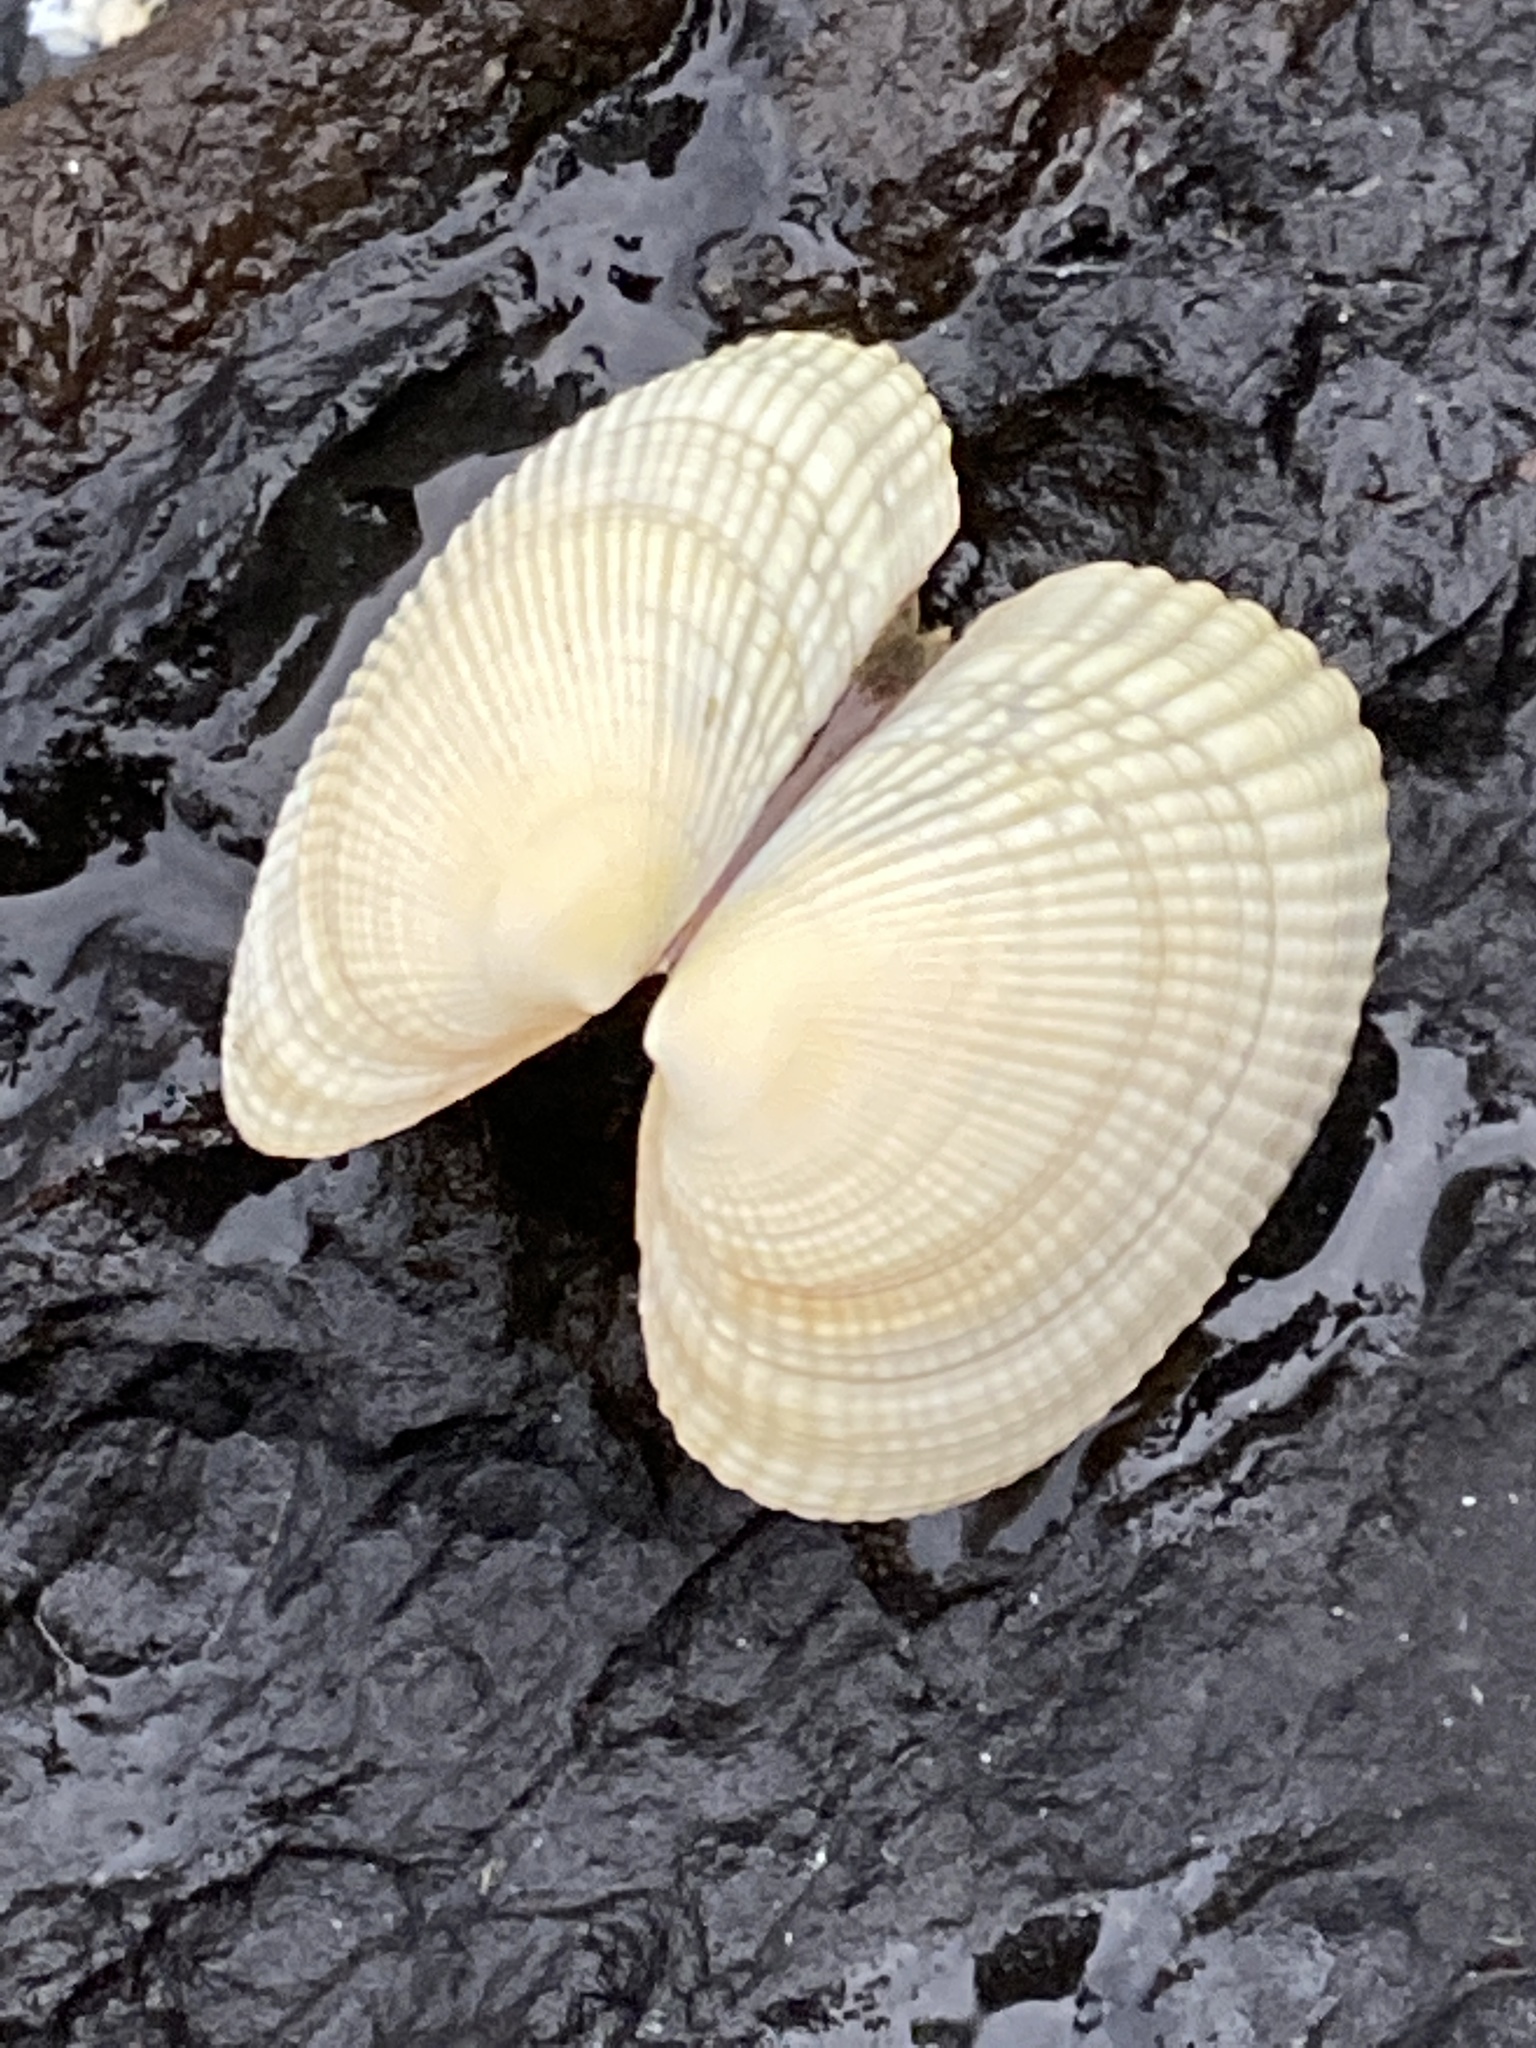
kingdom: Animalia
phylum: Mollusca
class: Bivalvia
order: Venerida
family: Veneridae
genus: Leukoma
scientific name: Leukoma crassicosta
